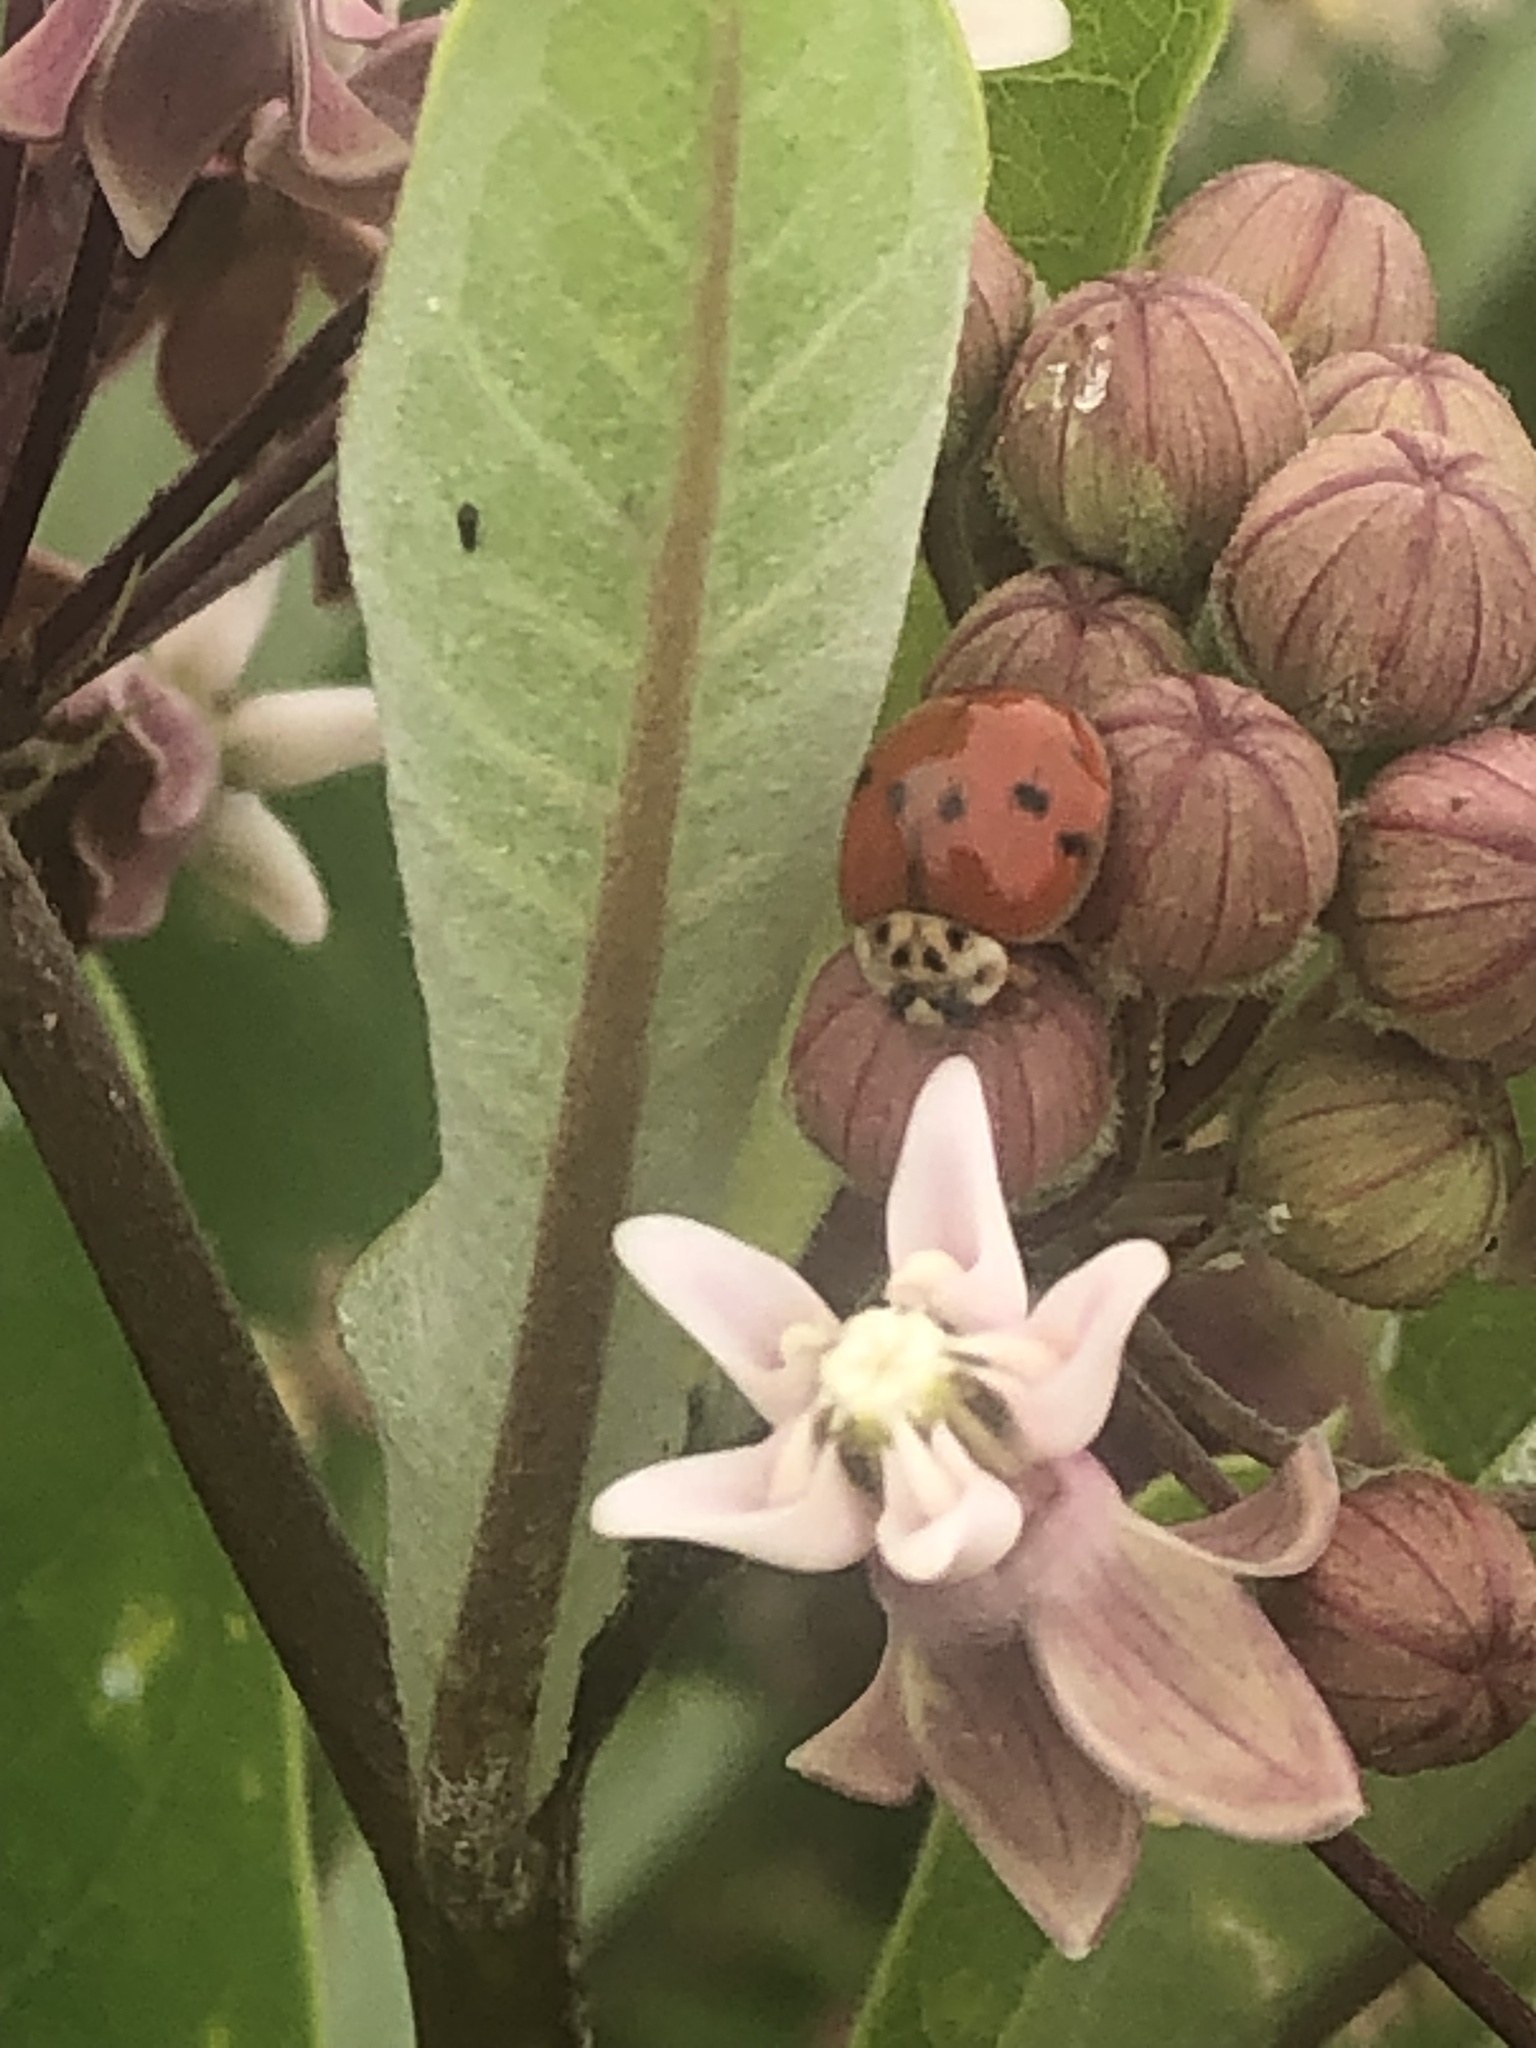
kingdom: Animalia
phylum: Arthropoda
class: Insecta
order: Coleoptera
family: Coccinellidae
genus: Harmonia
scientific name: Harmonia axyridis
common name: Harlequin ladybird
